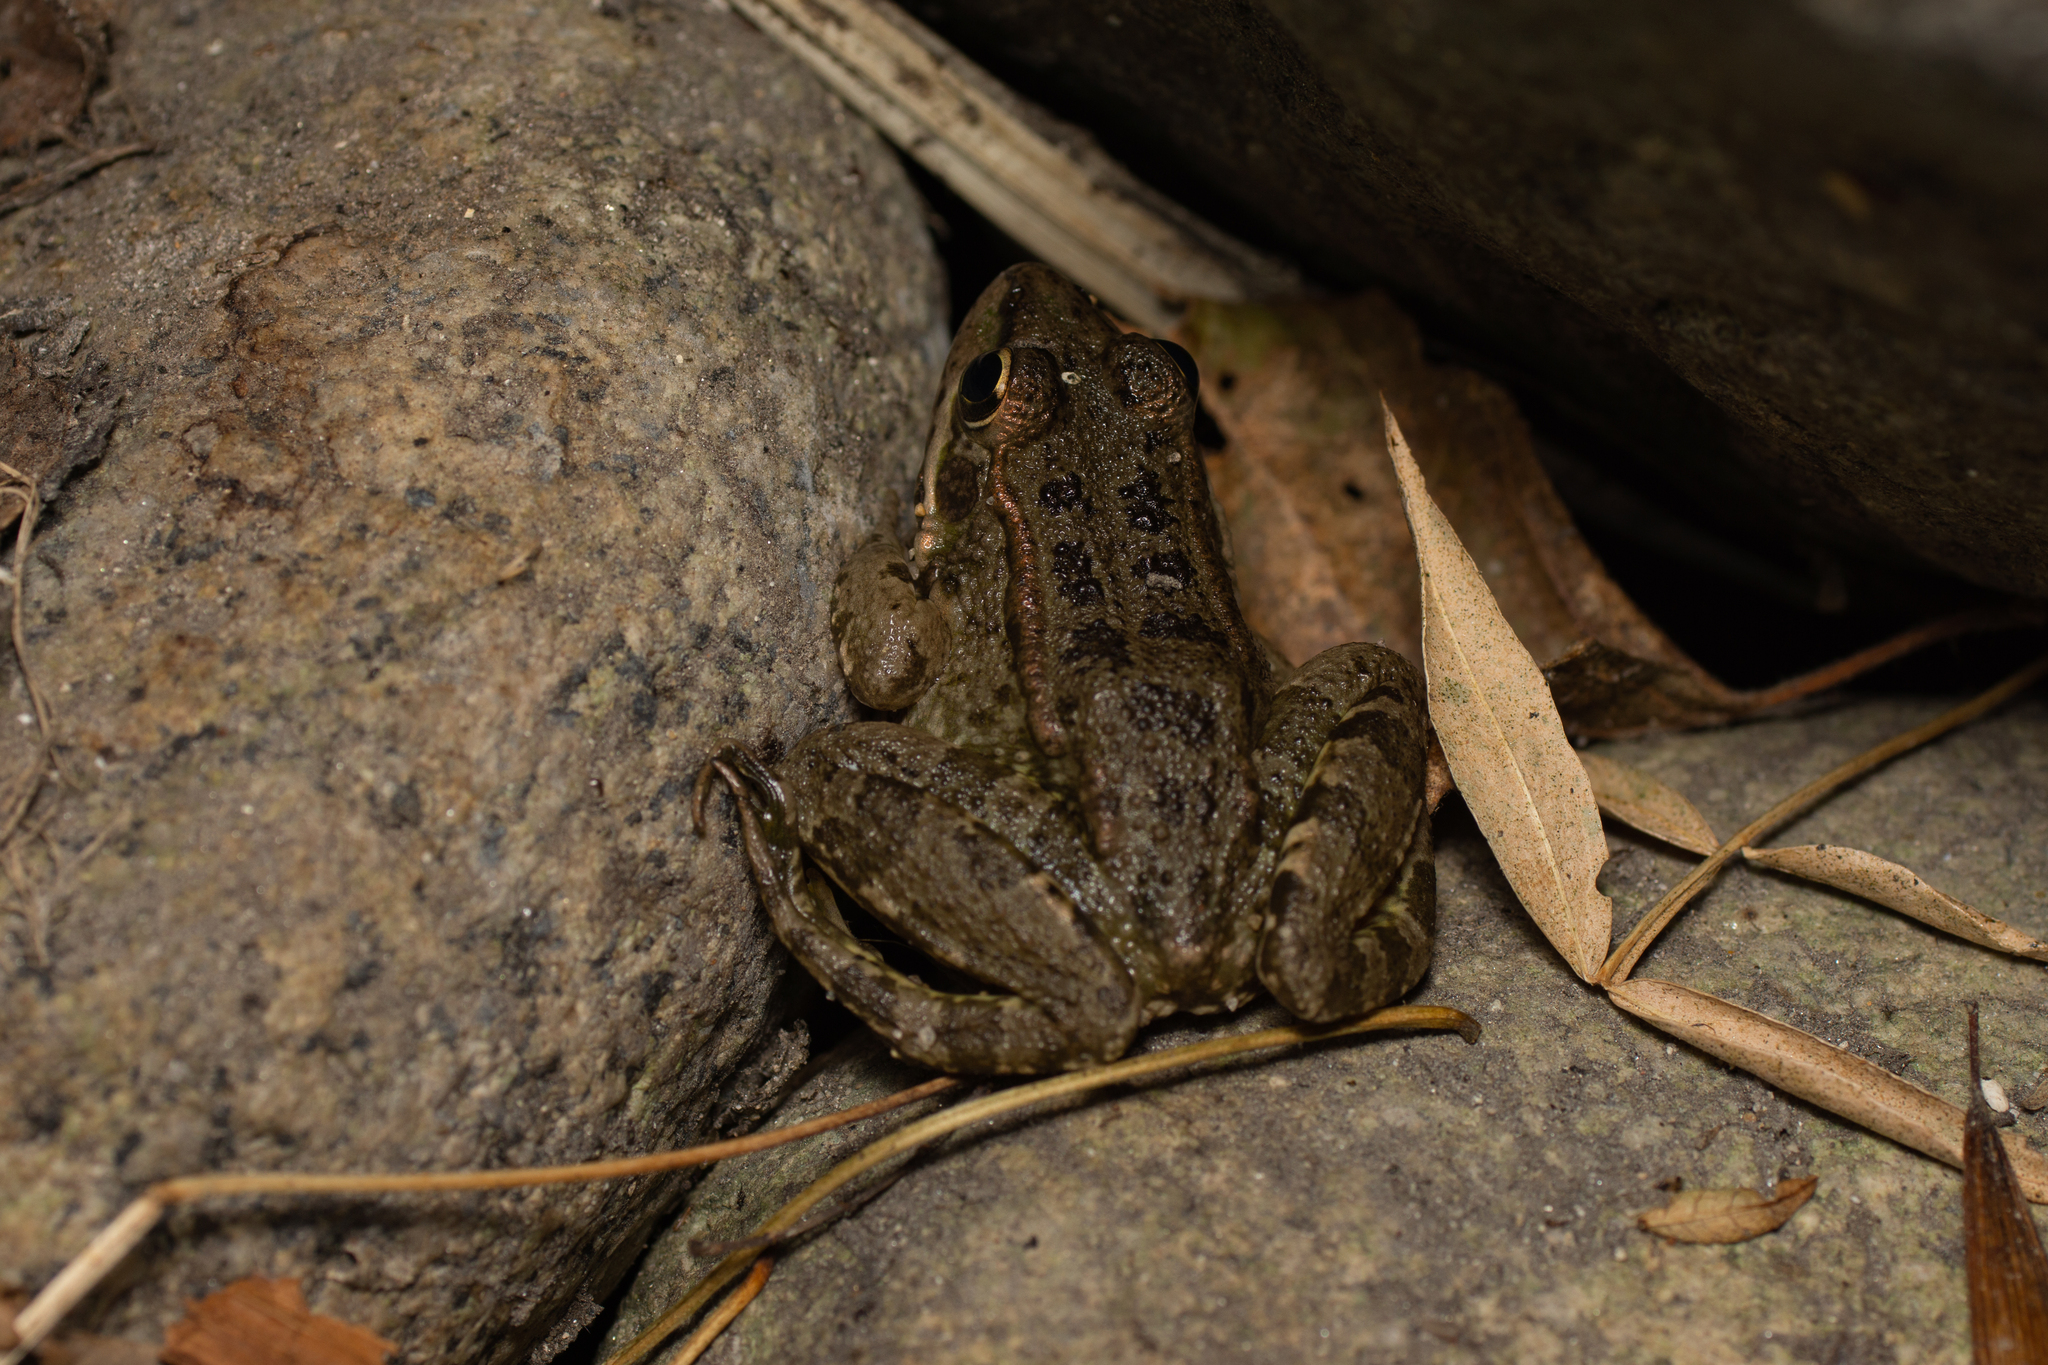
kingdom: Animalia
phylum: Chordata
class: Amphibia
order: Anura
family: Ranidae
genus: Pelophylax
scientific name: Pelophylax perezi
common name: Perez's frog
